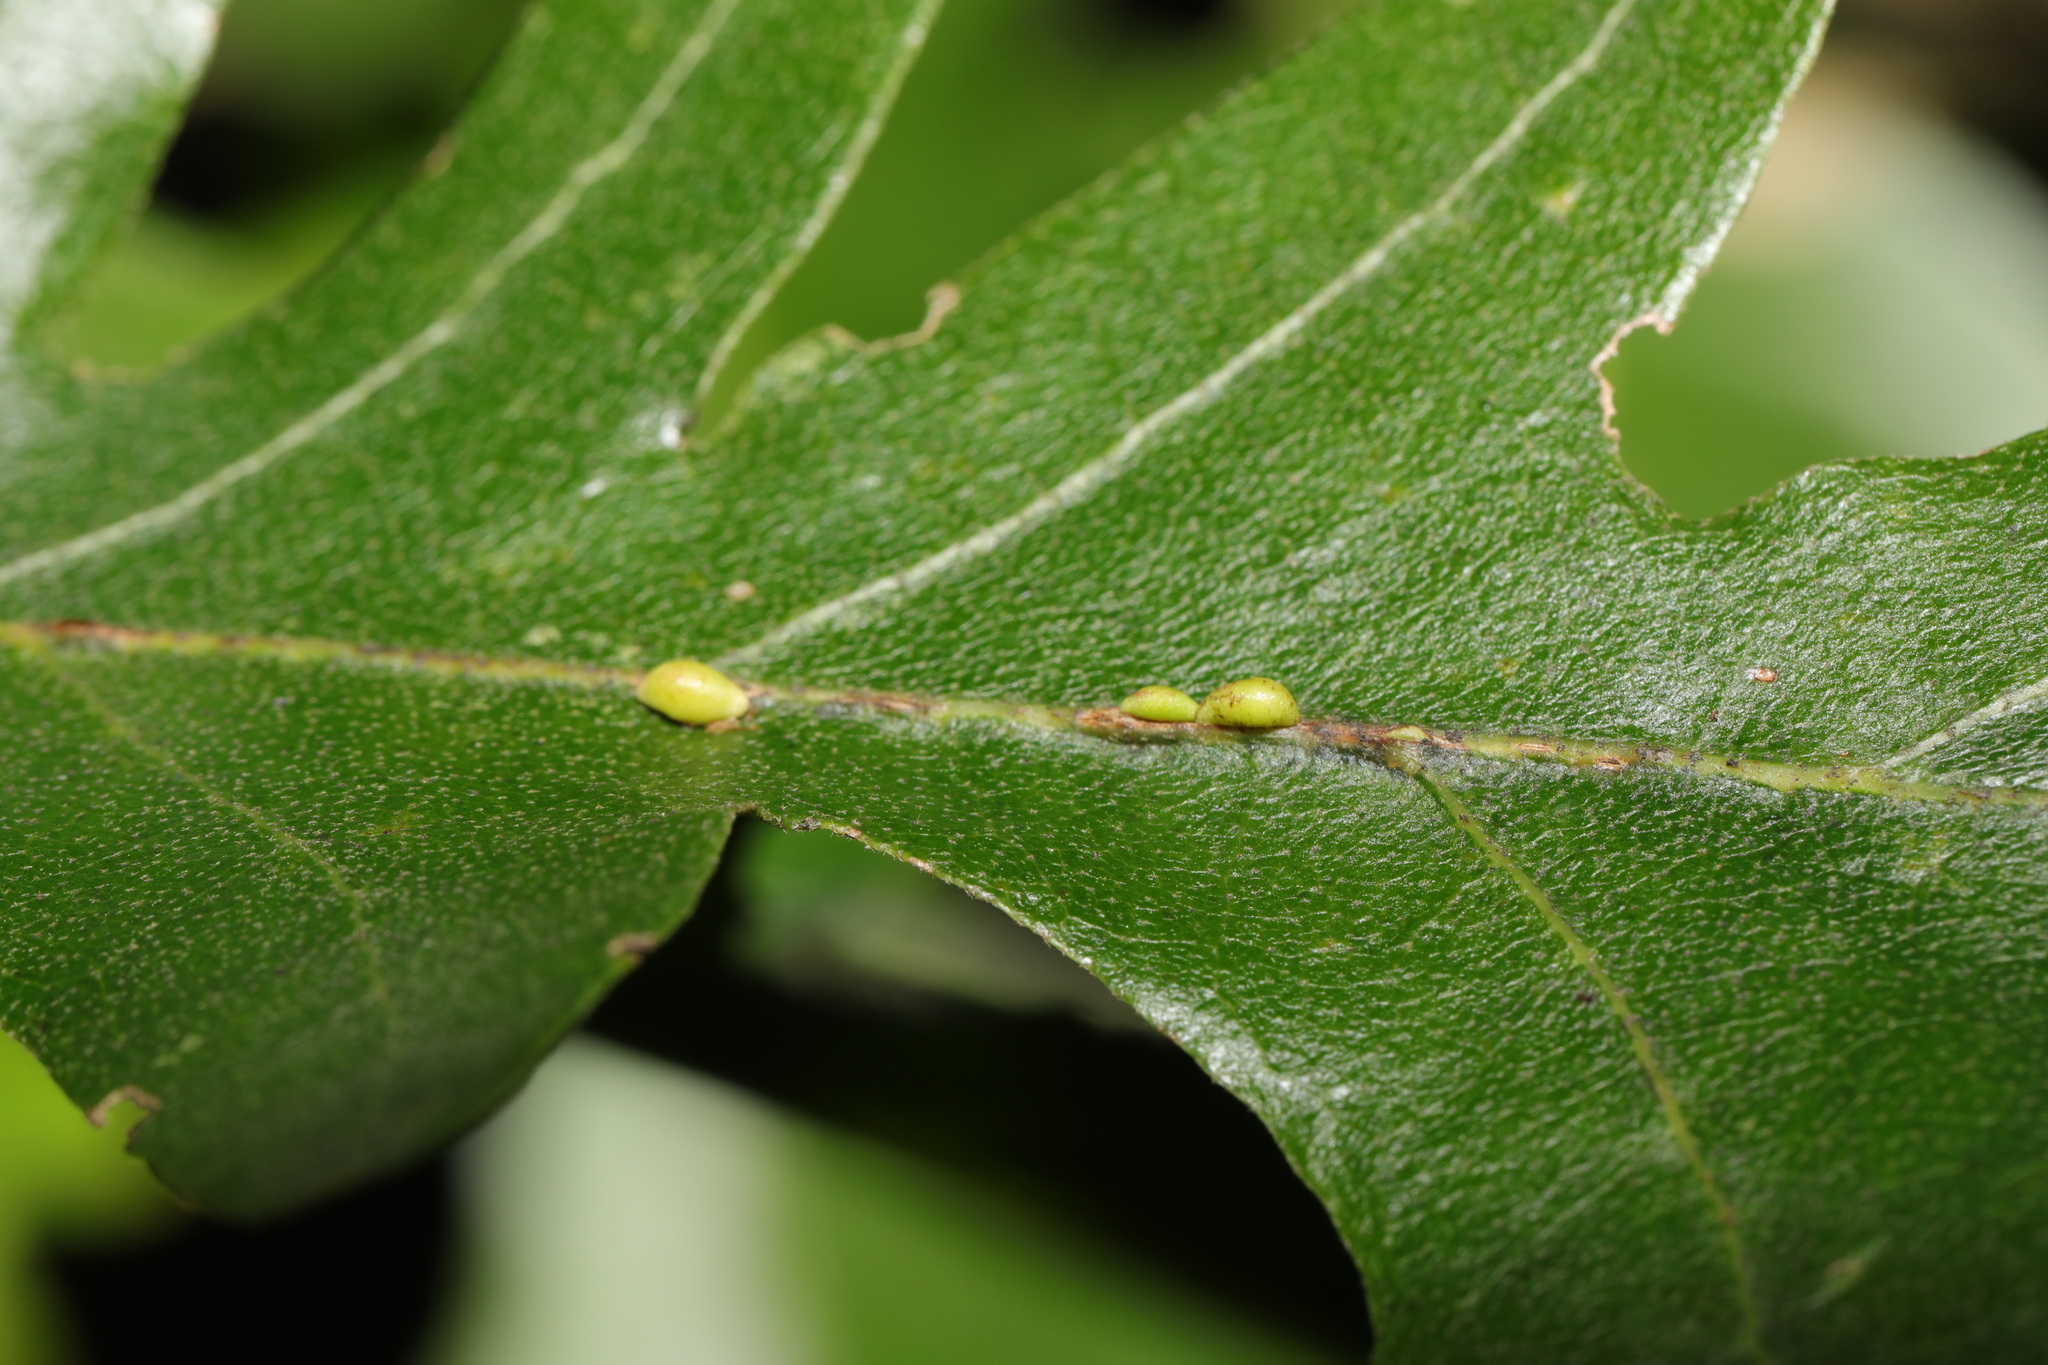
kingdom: Animalia
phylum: Arthropoda
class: Insecta
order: Hymenoptera
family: Cynipidae
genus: Neuroterus
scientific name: Neuroterus saliens
